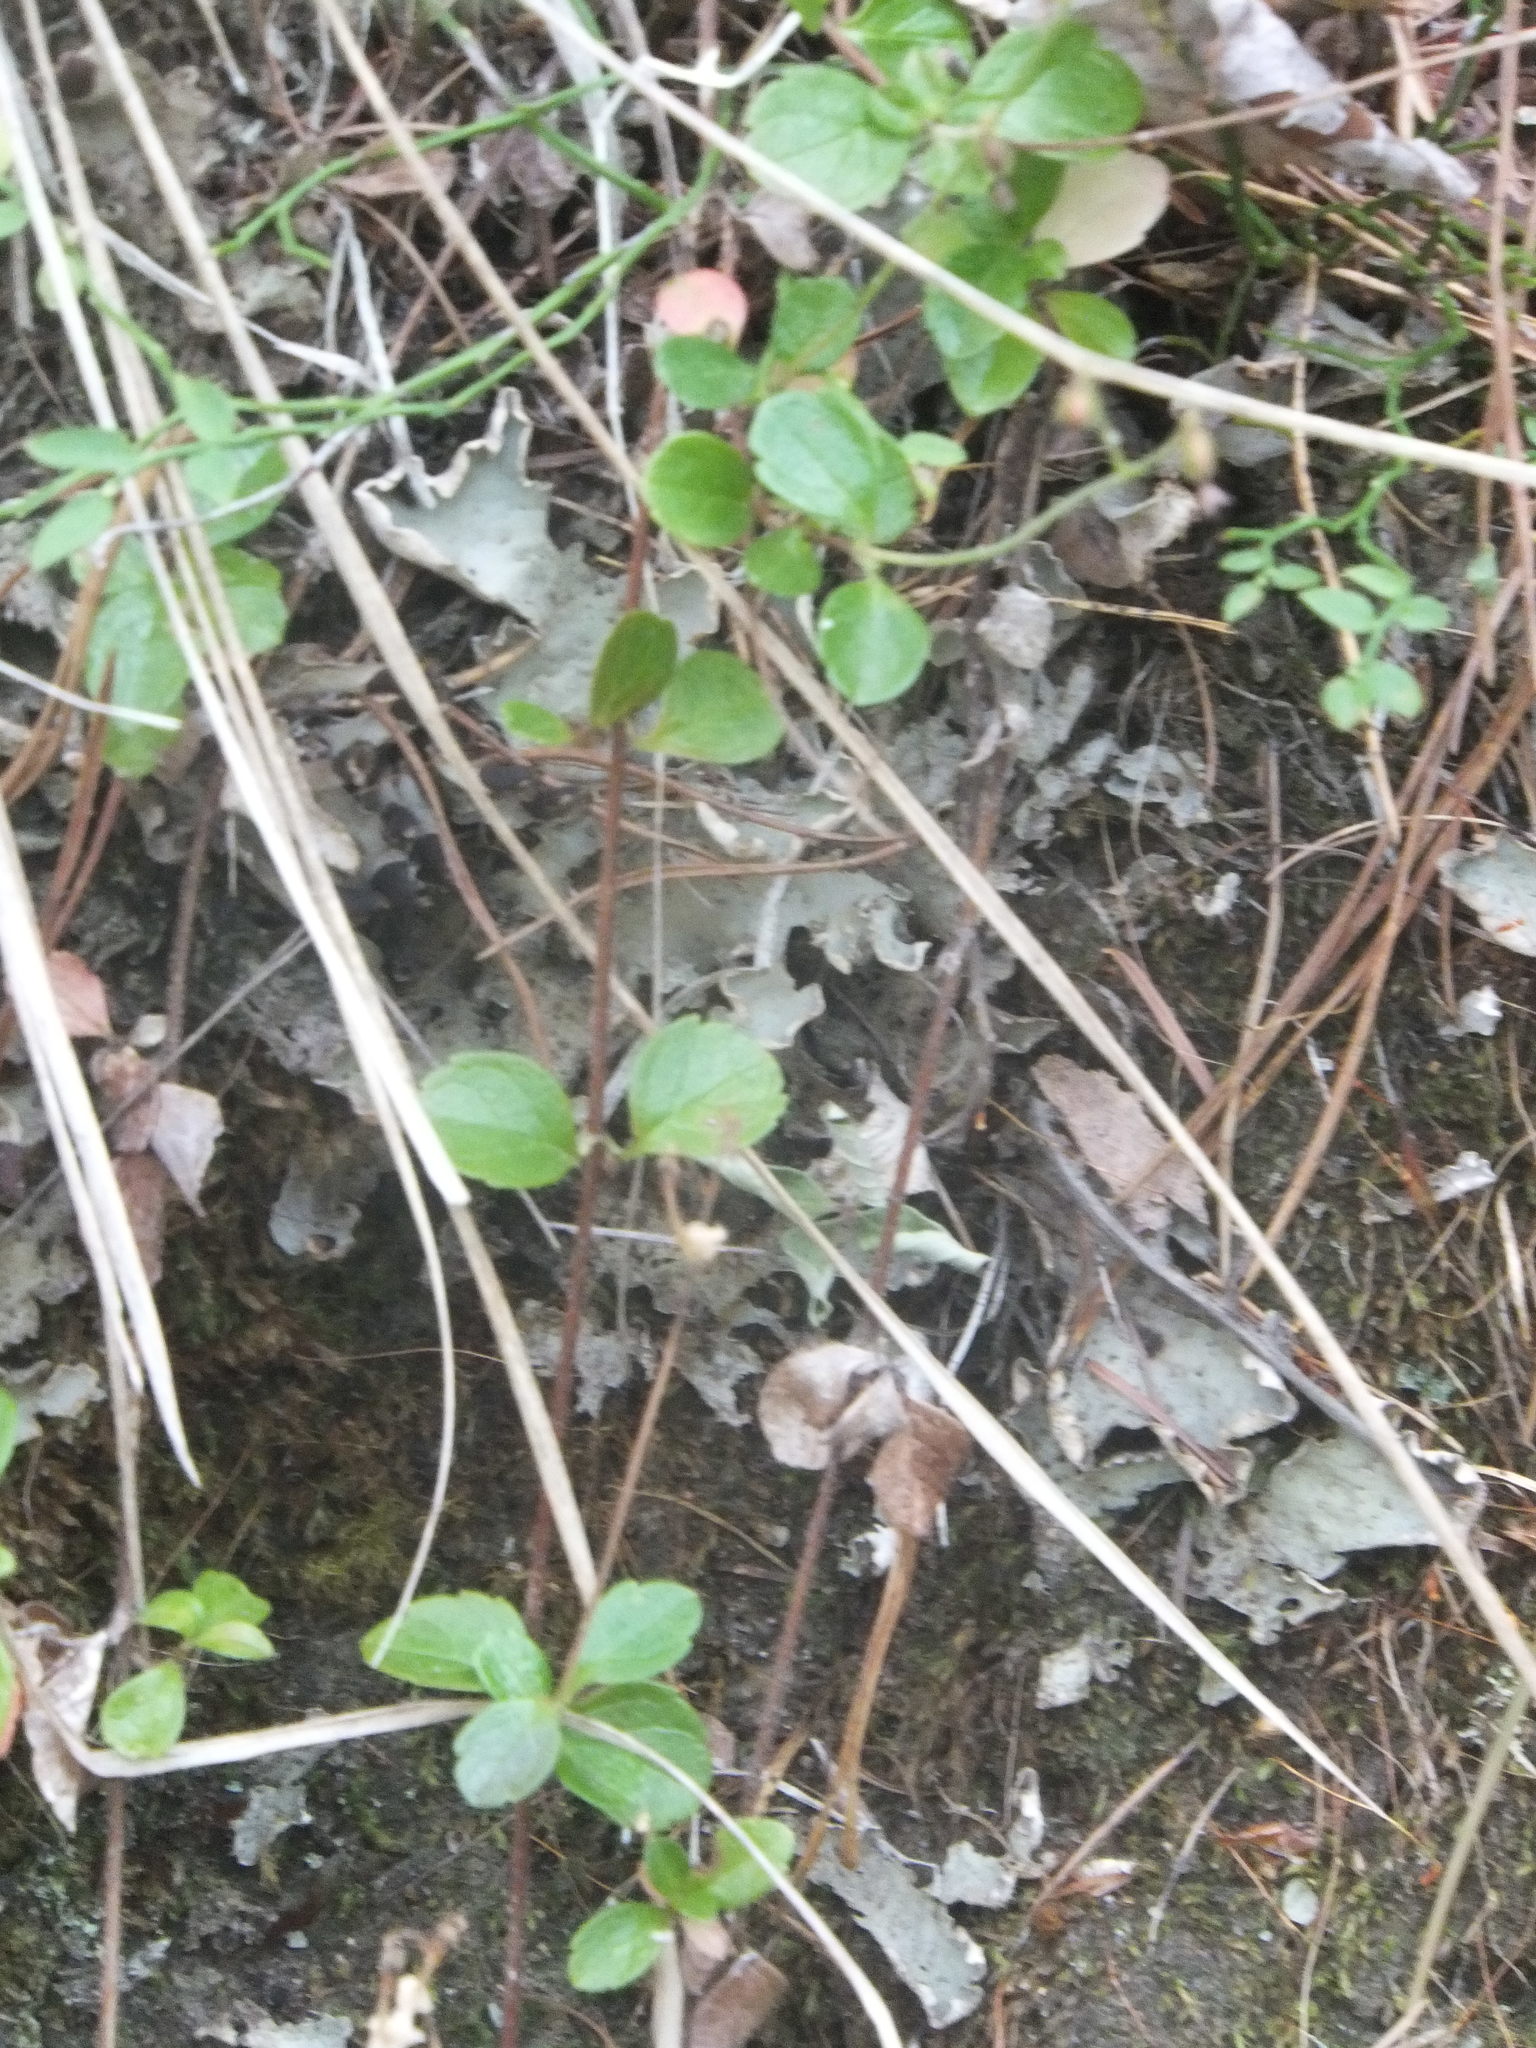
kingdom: Plantae
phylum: Tracheophyta
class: Magnoliopsida
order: Dipsacales
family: Caprifoliaceae
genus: Linnaea
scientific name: Linnaea borealis
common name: Twinflower
